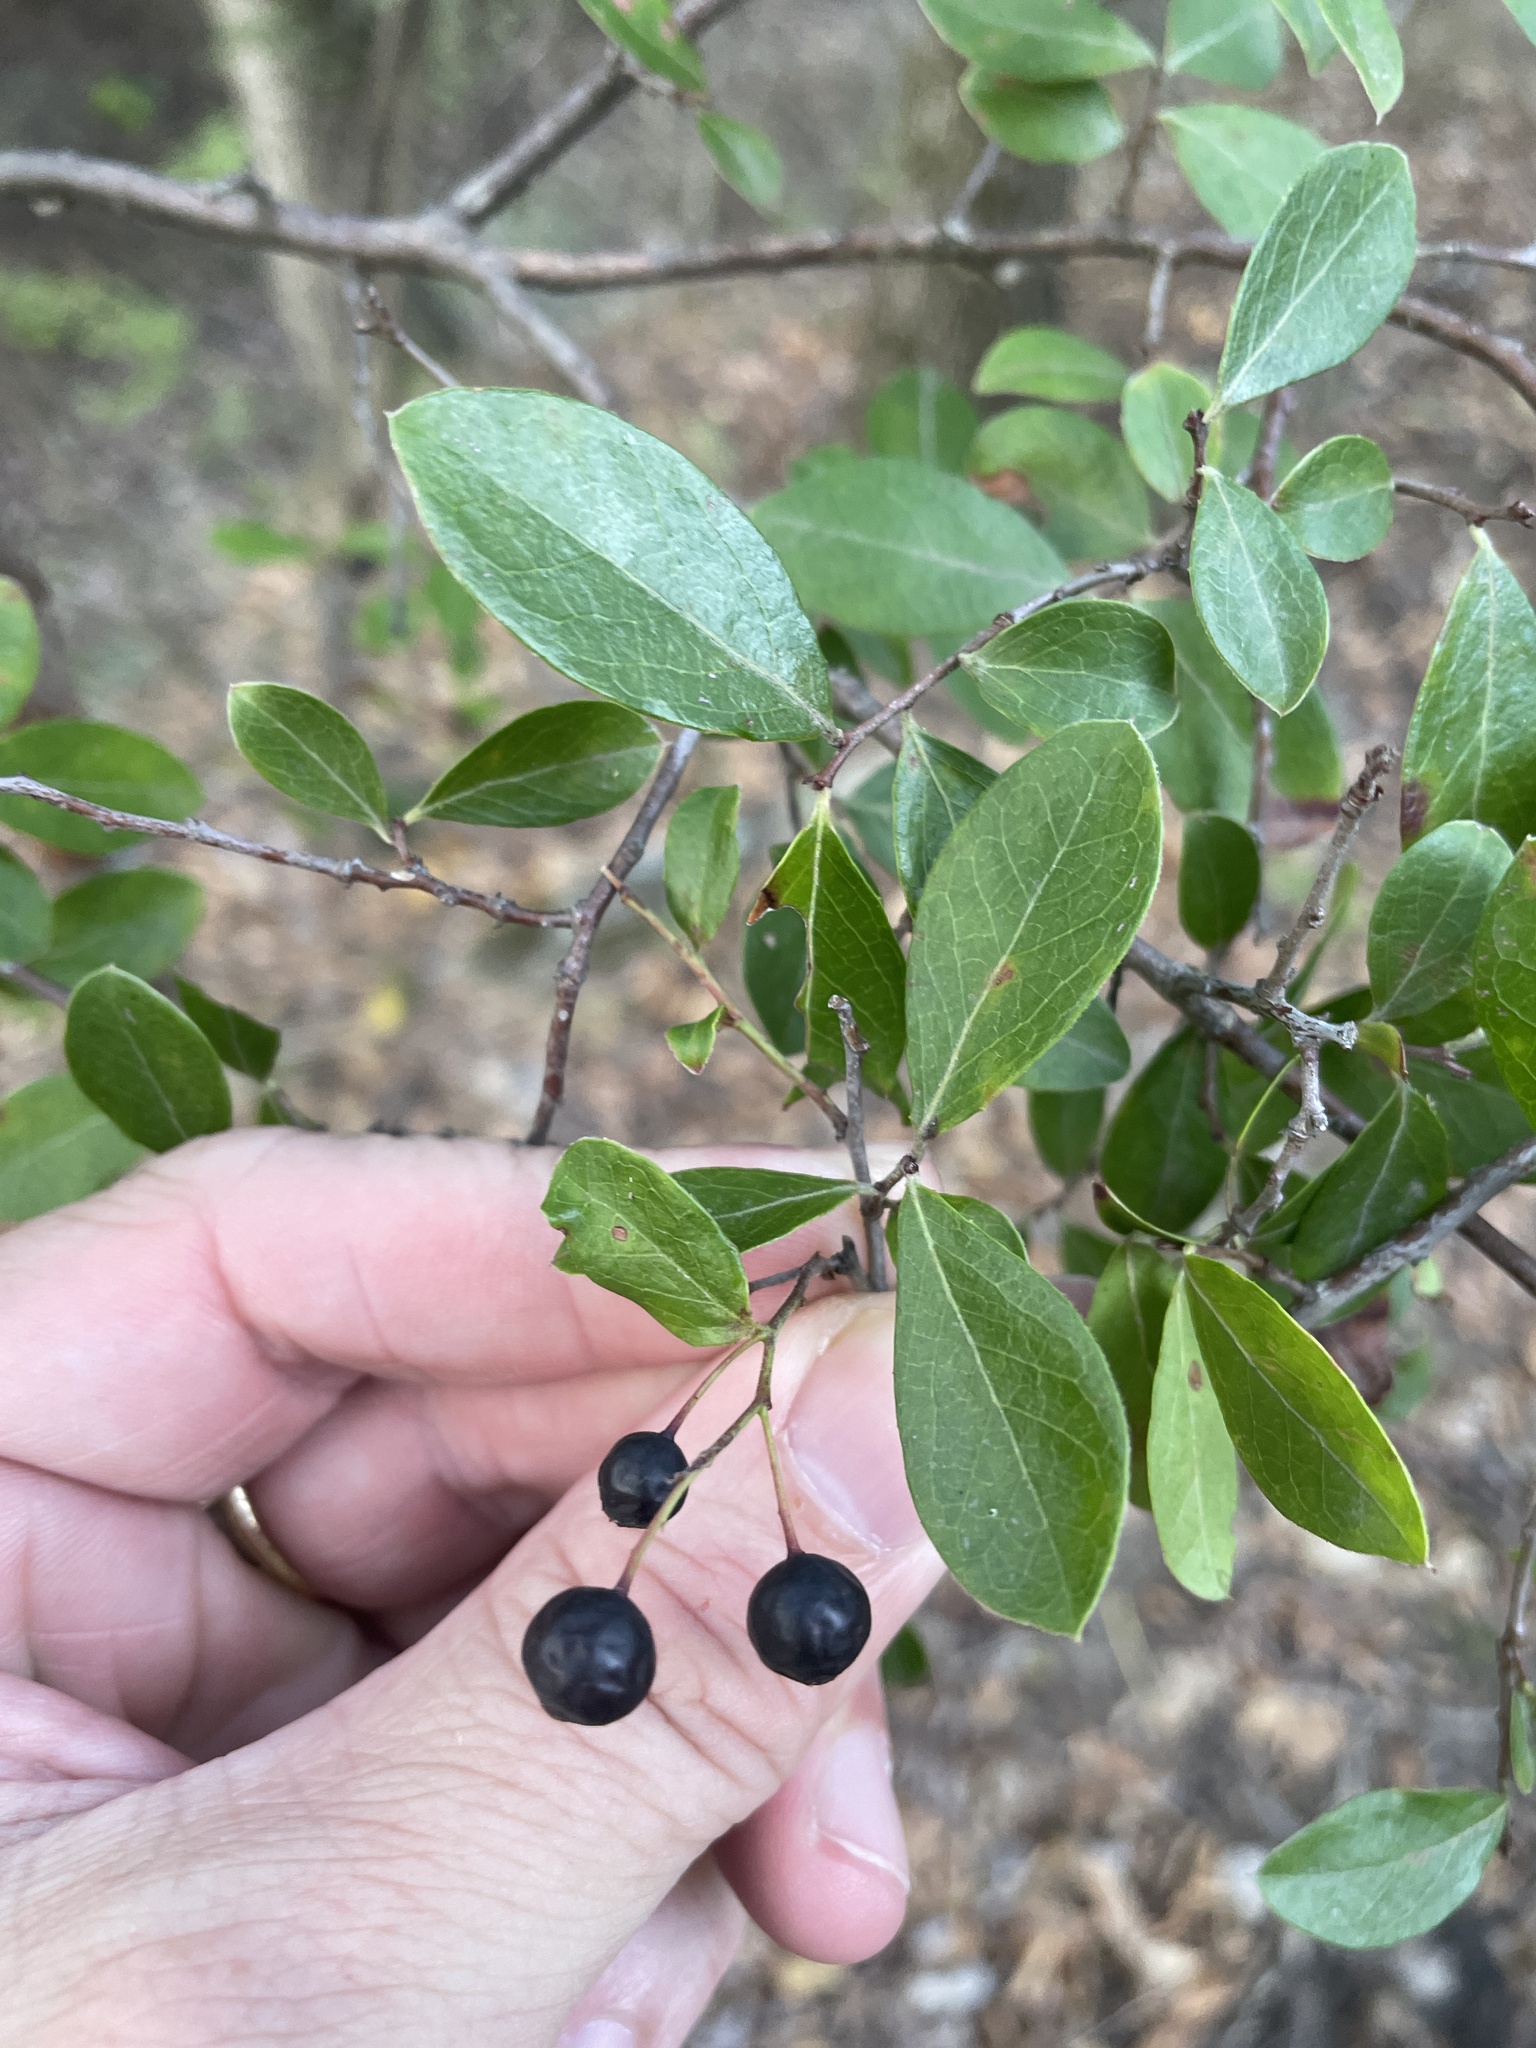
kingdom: Plantae
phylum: Tracheophyta
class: Magnoliopsida
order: Ericales
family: Ericaceae
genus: Vaccinium
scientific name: Vaccinium arboreum
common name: Farkleberry
